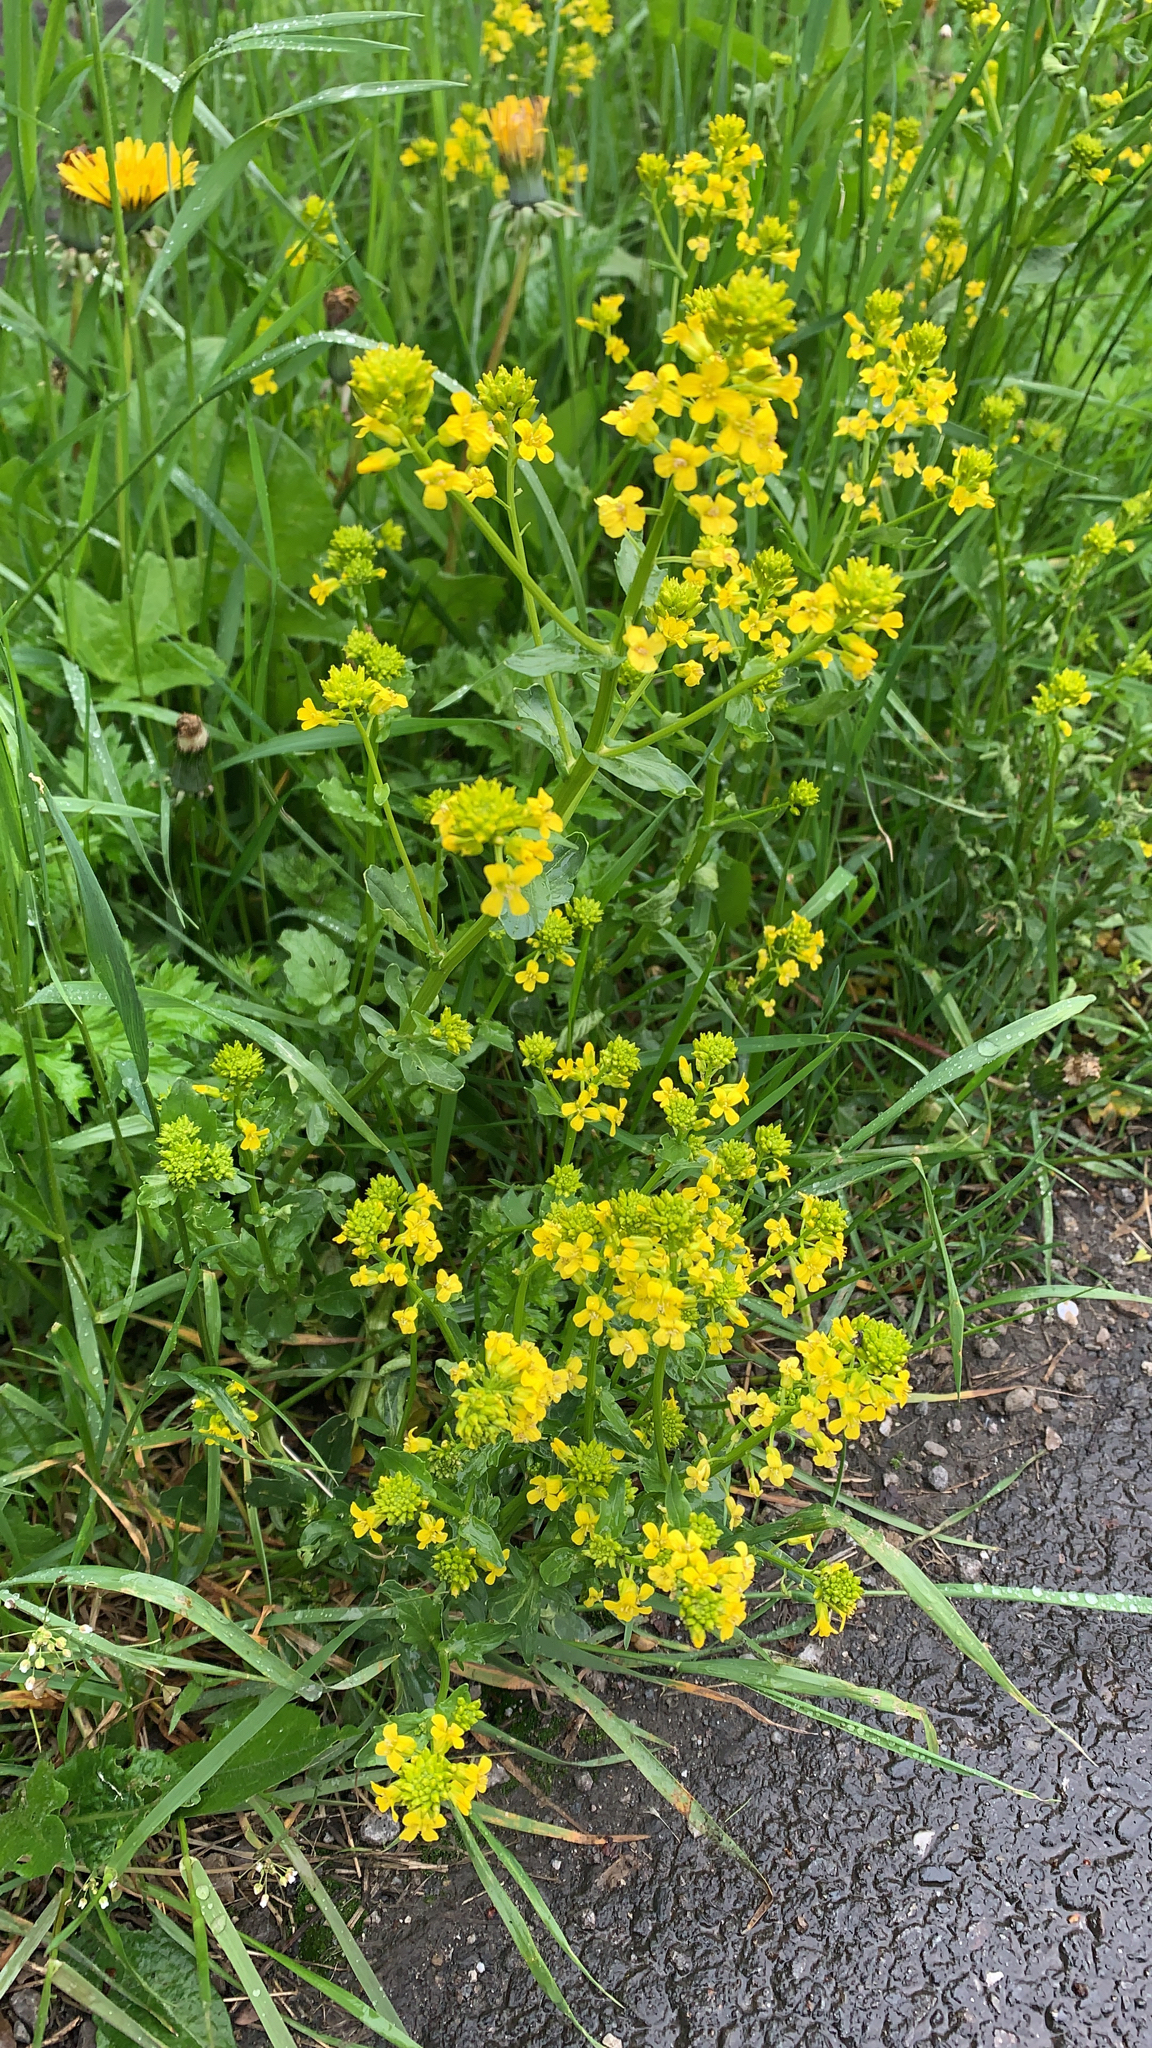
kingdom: Plantae
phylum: Tracheophyta
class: Magnoliopsida
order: Brassicales
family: Brassicaceae
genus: Barbarea
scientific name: Barbarea vulgaris
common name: Cressy-greens
